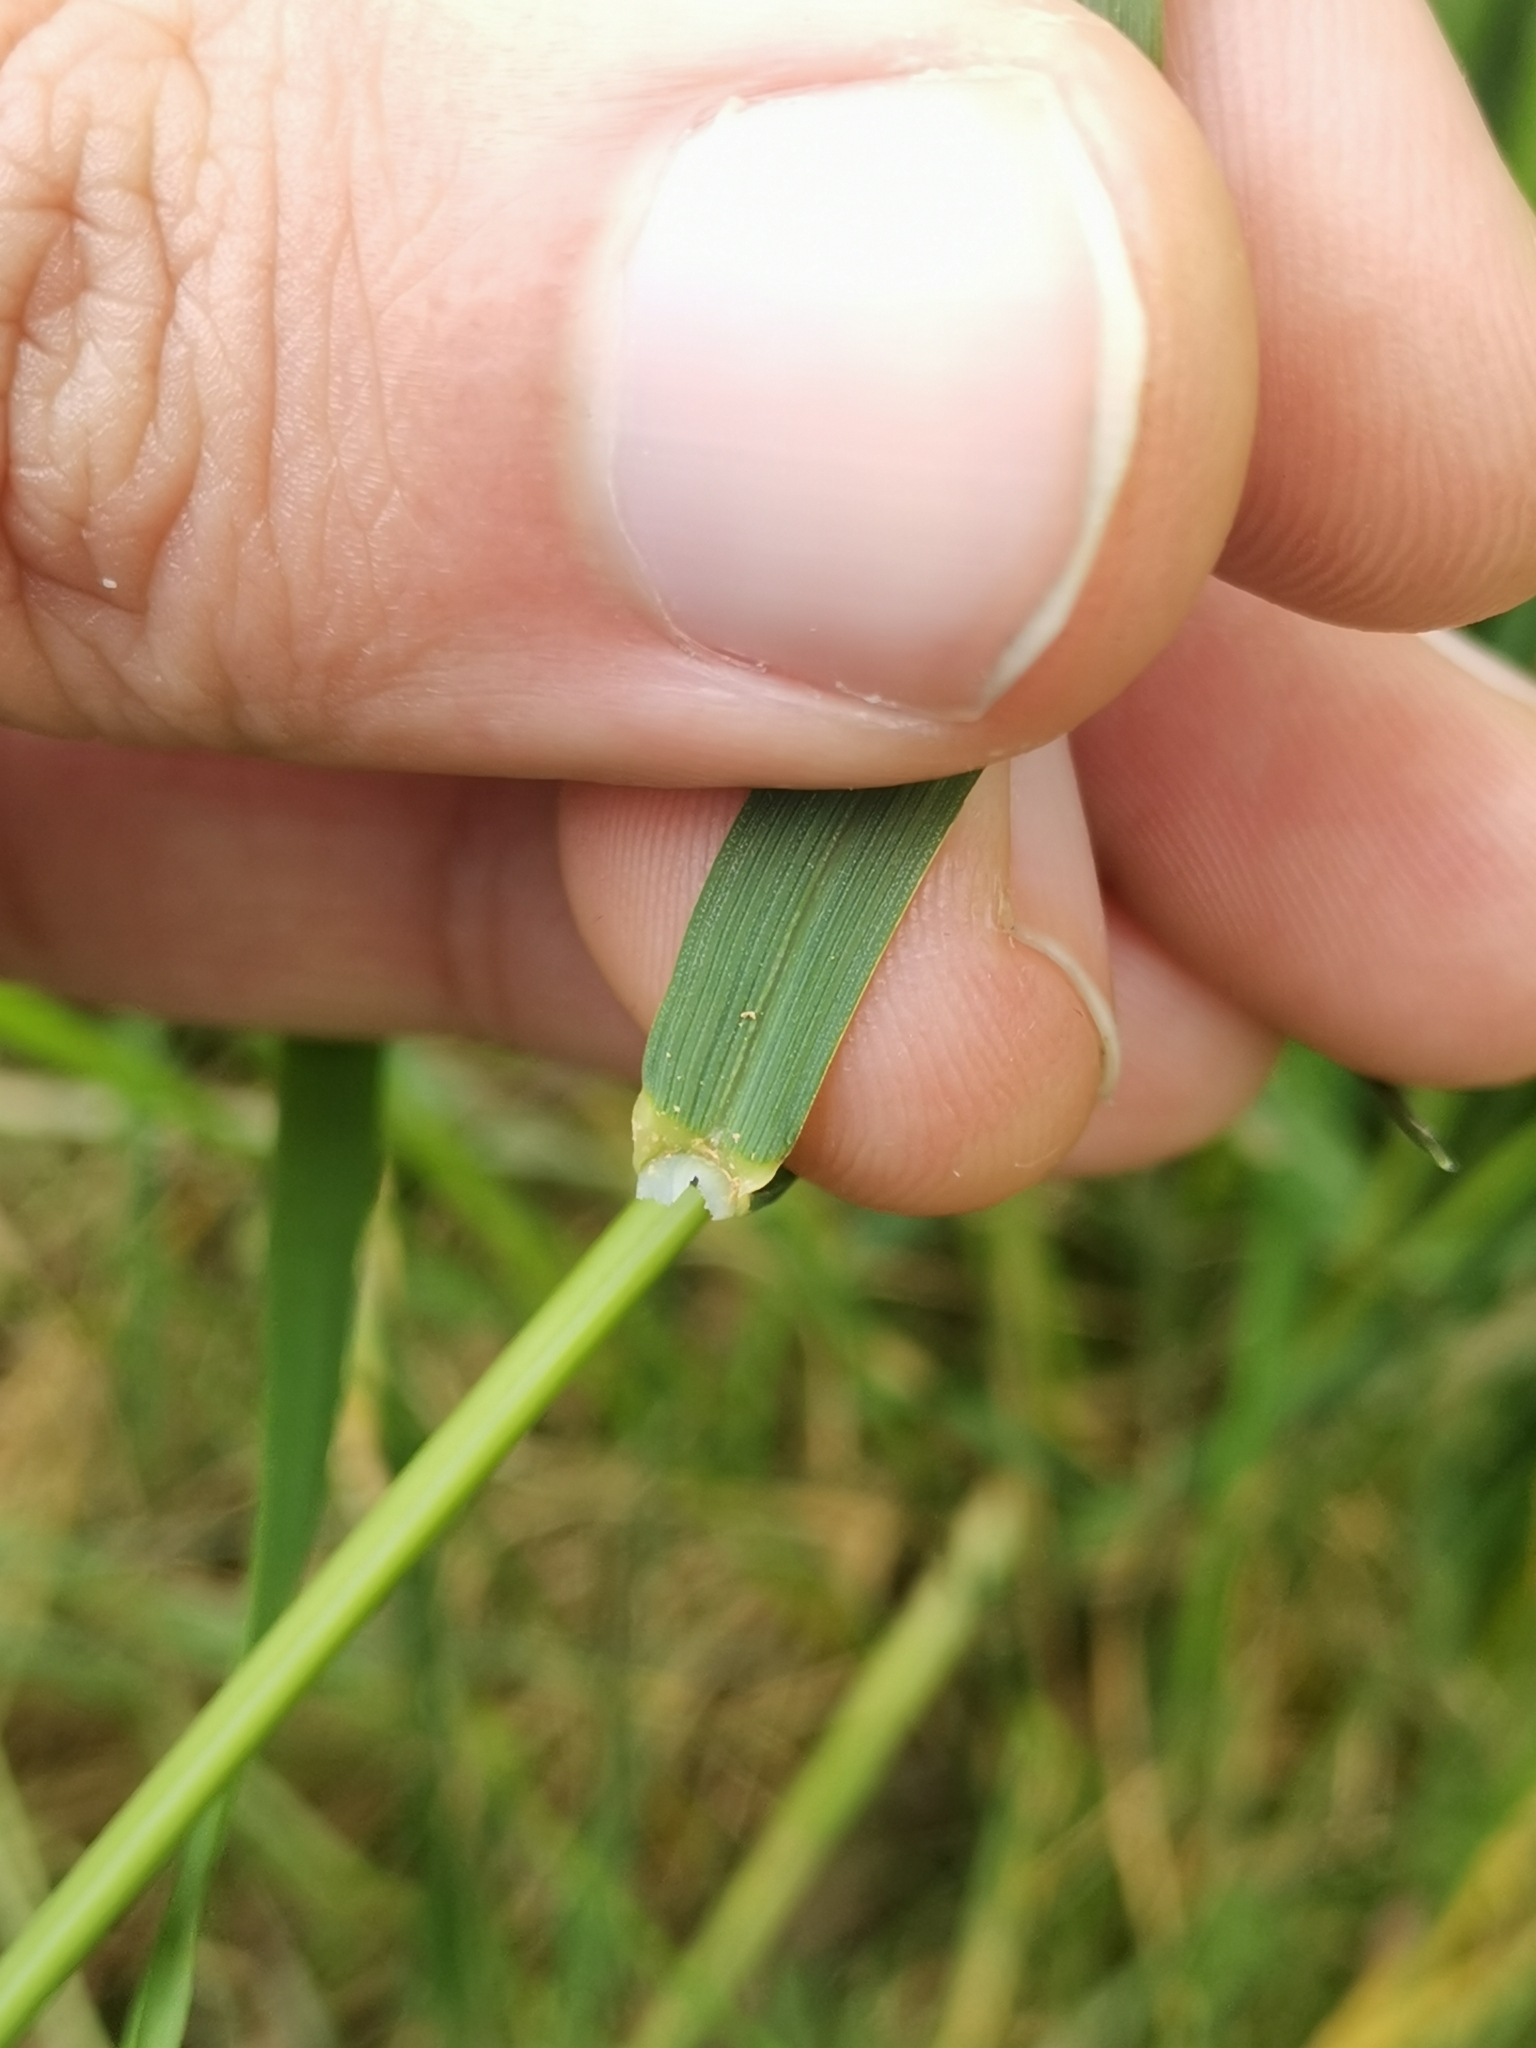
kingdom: Plantae
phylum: Tracheophyta
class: Liliopsida
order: Poales
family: Poaceae
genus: Arrhenatherum
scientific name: Arrhenatherum elatius
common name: Tall oatgrass
